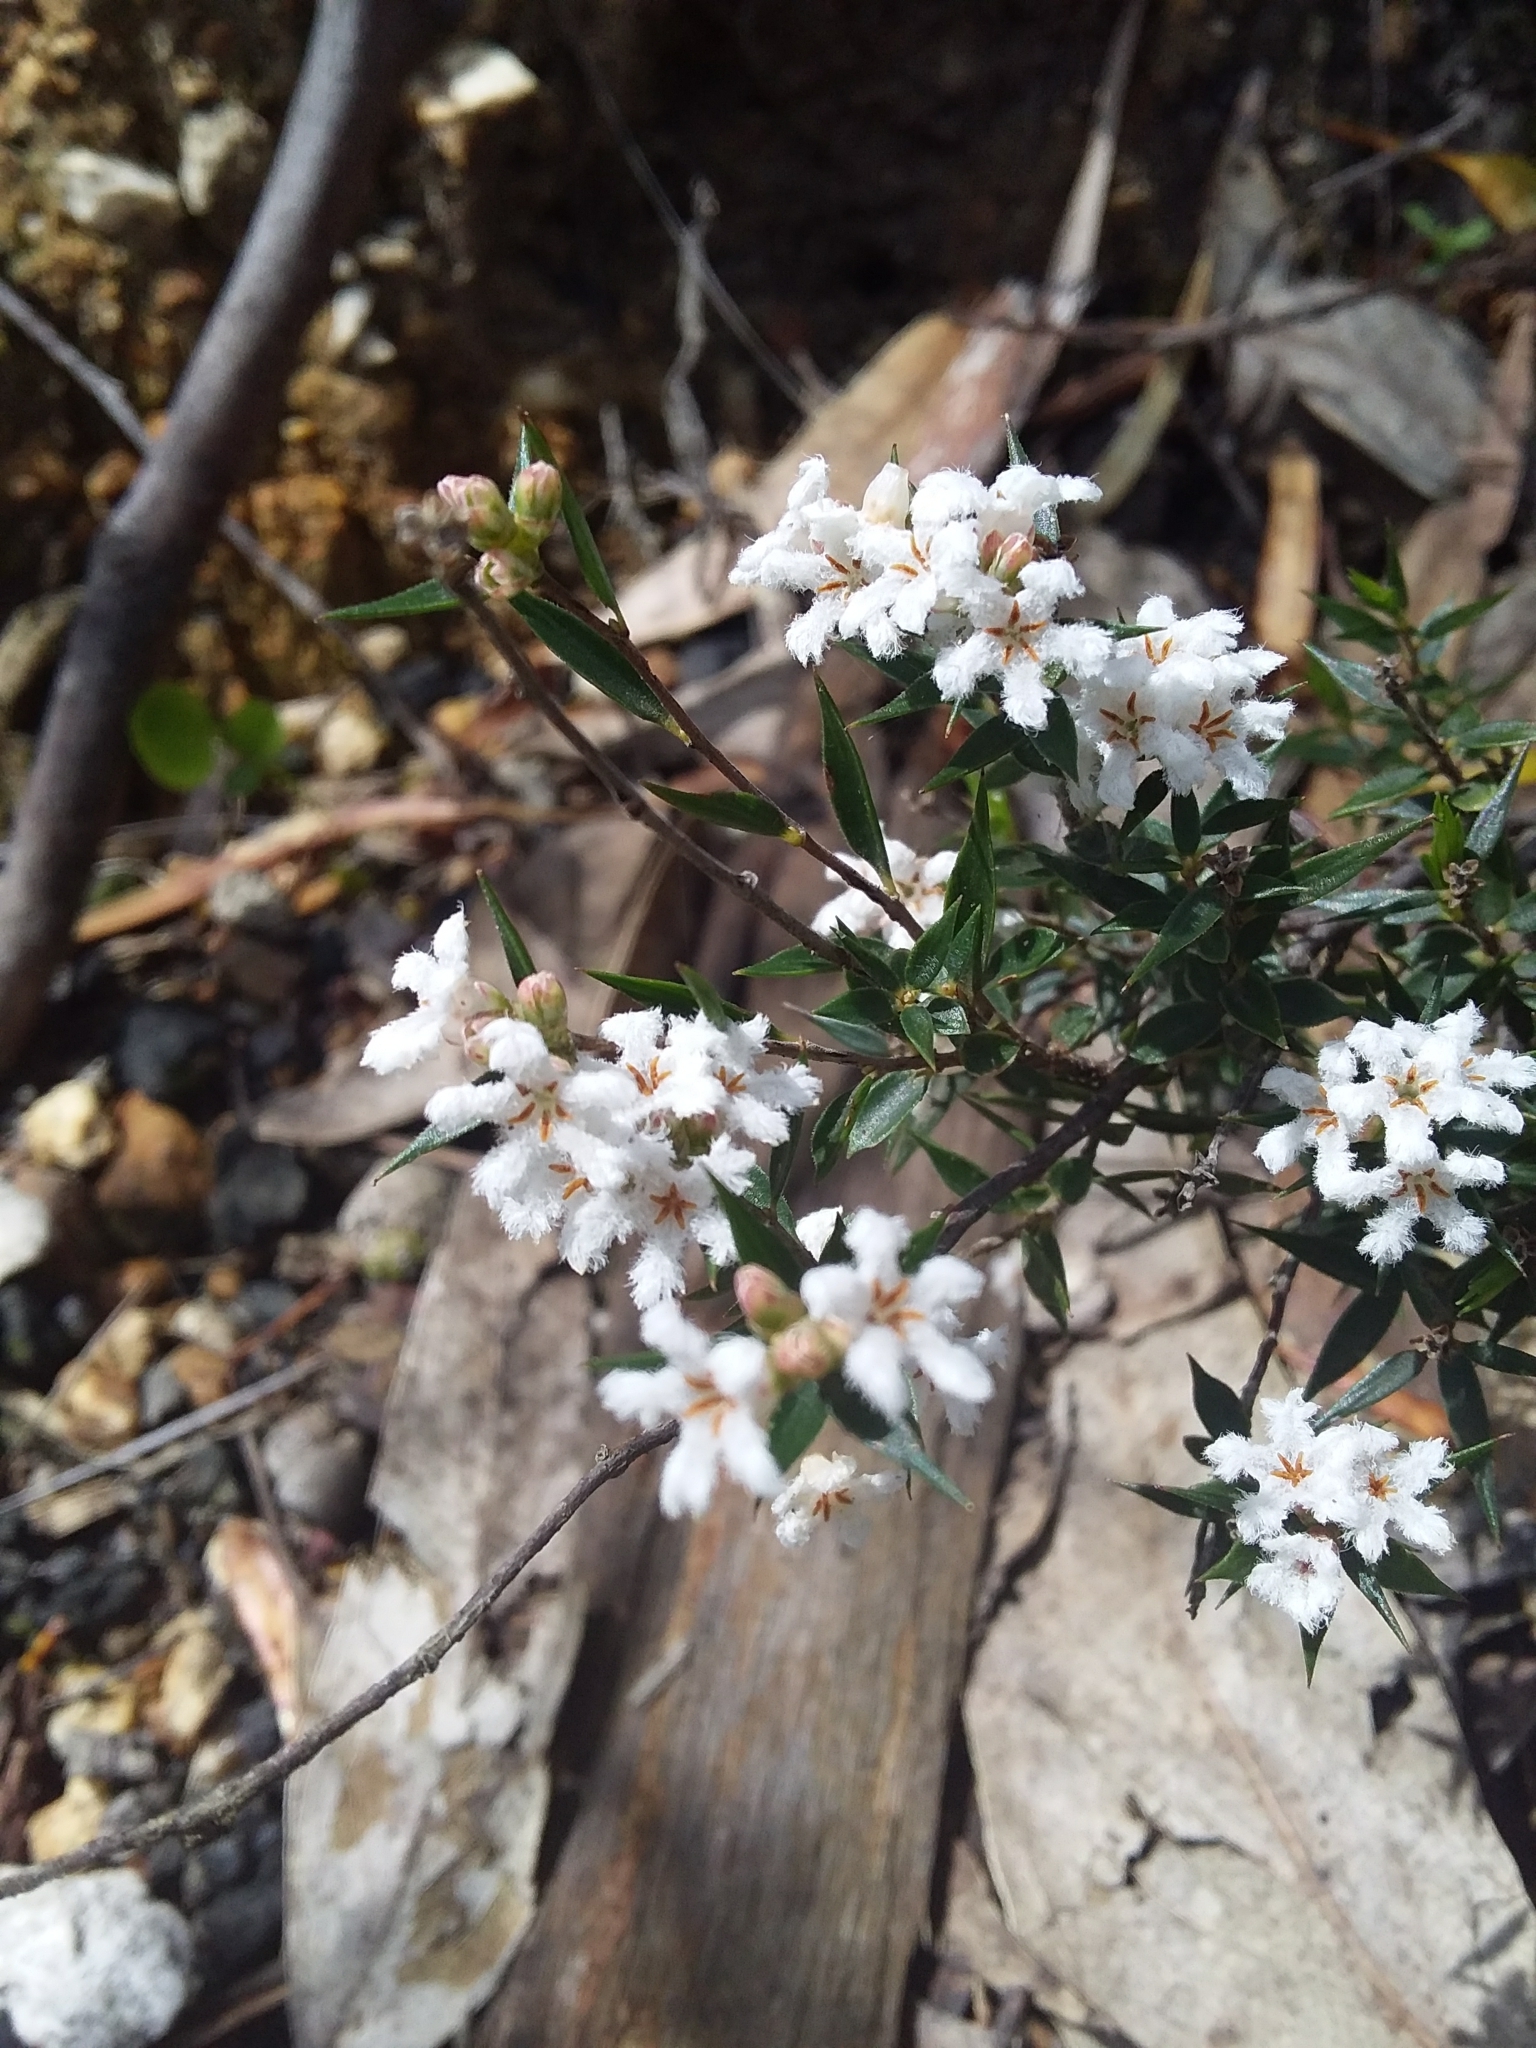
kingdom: Plantae
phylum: Tracheophyta
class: Magnoliopsida
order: Ericales
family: Ericaceae
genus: Leucopogon
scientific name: Leucopogon virgatus
